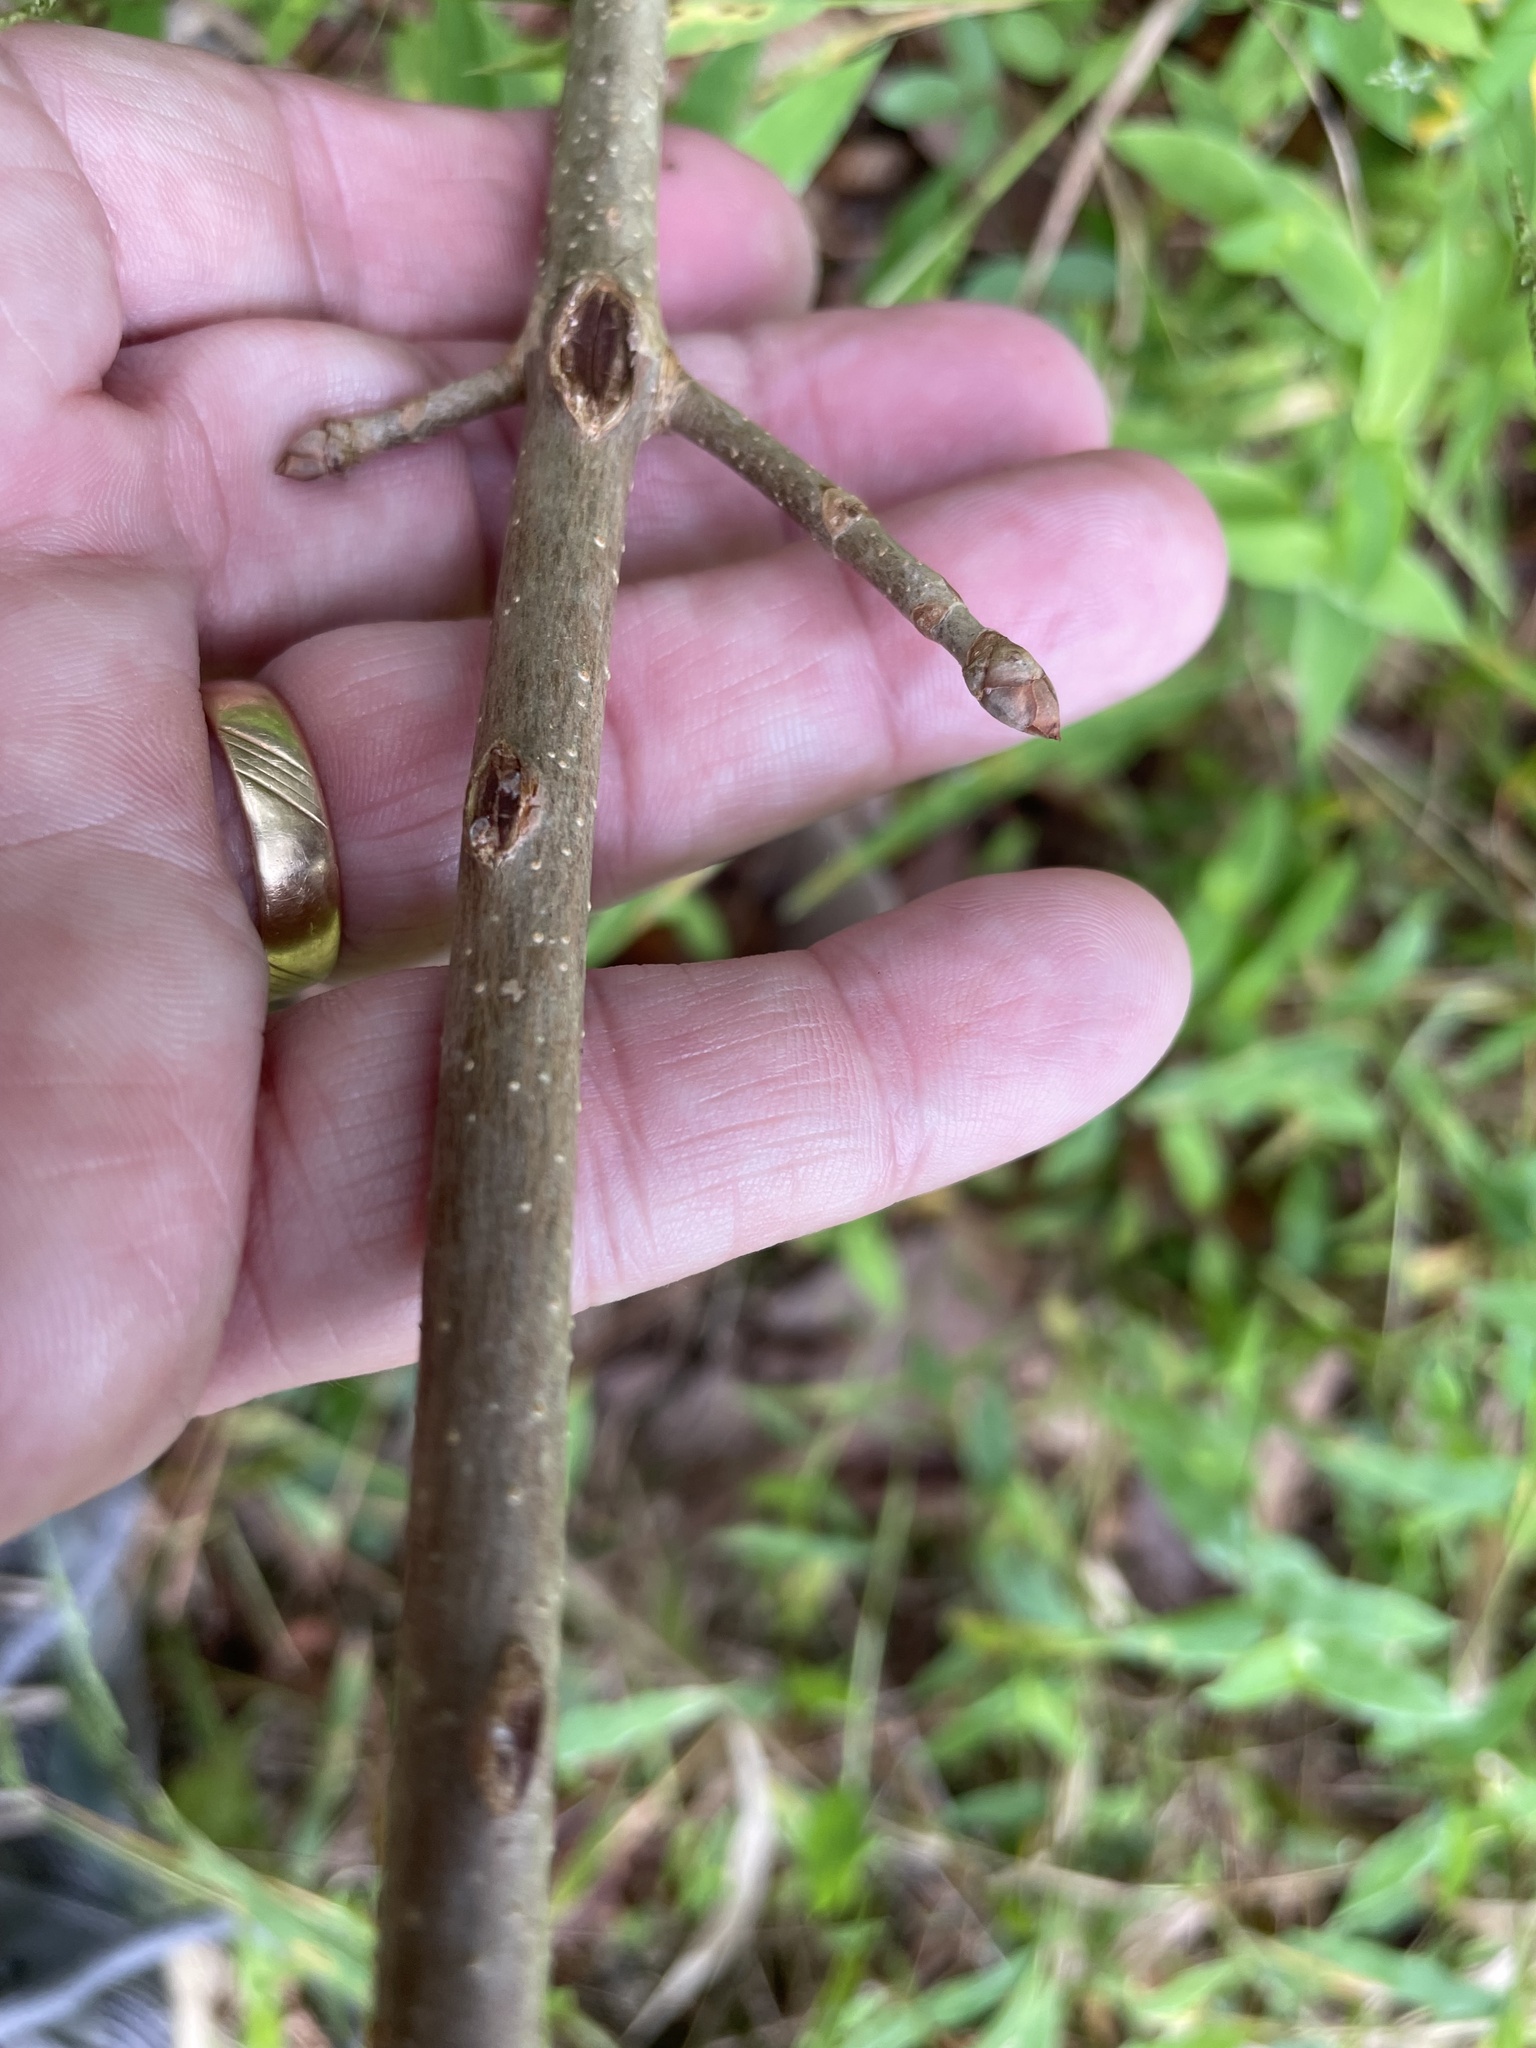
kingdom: Plantae
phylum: Tracheophyta
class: Magnoliopsida
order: Sapindales
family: Sapindaceae
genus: Aesculus
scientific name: Aesculus sylvatica
